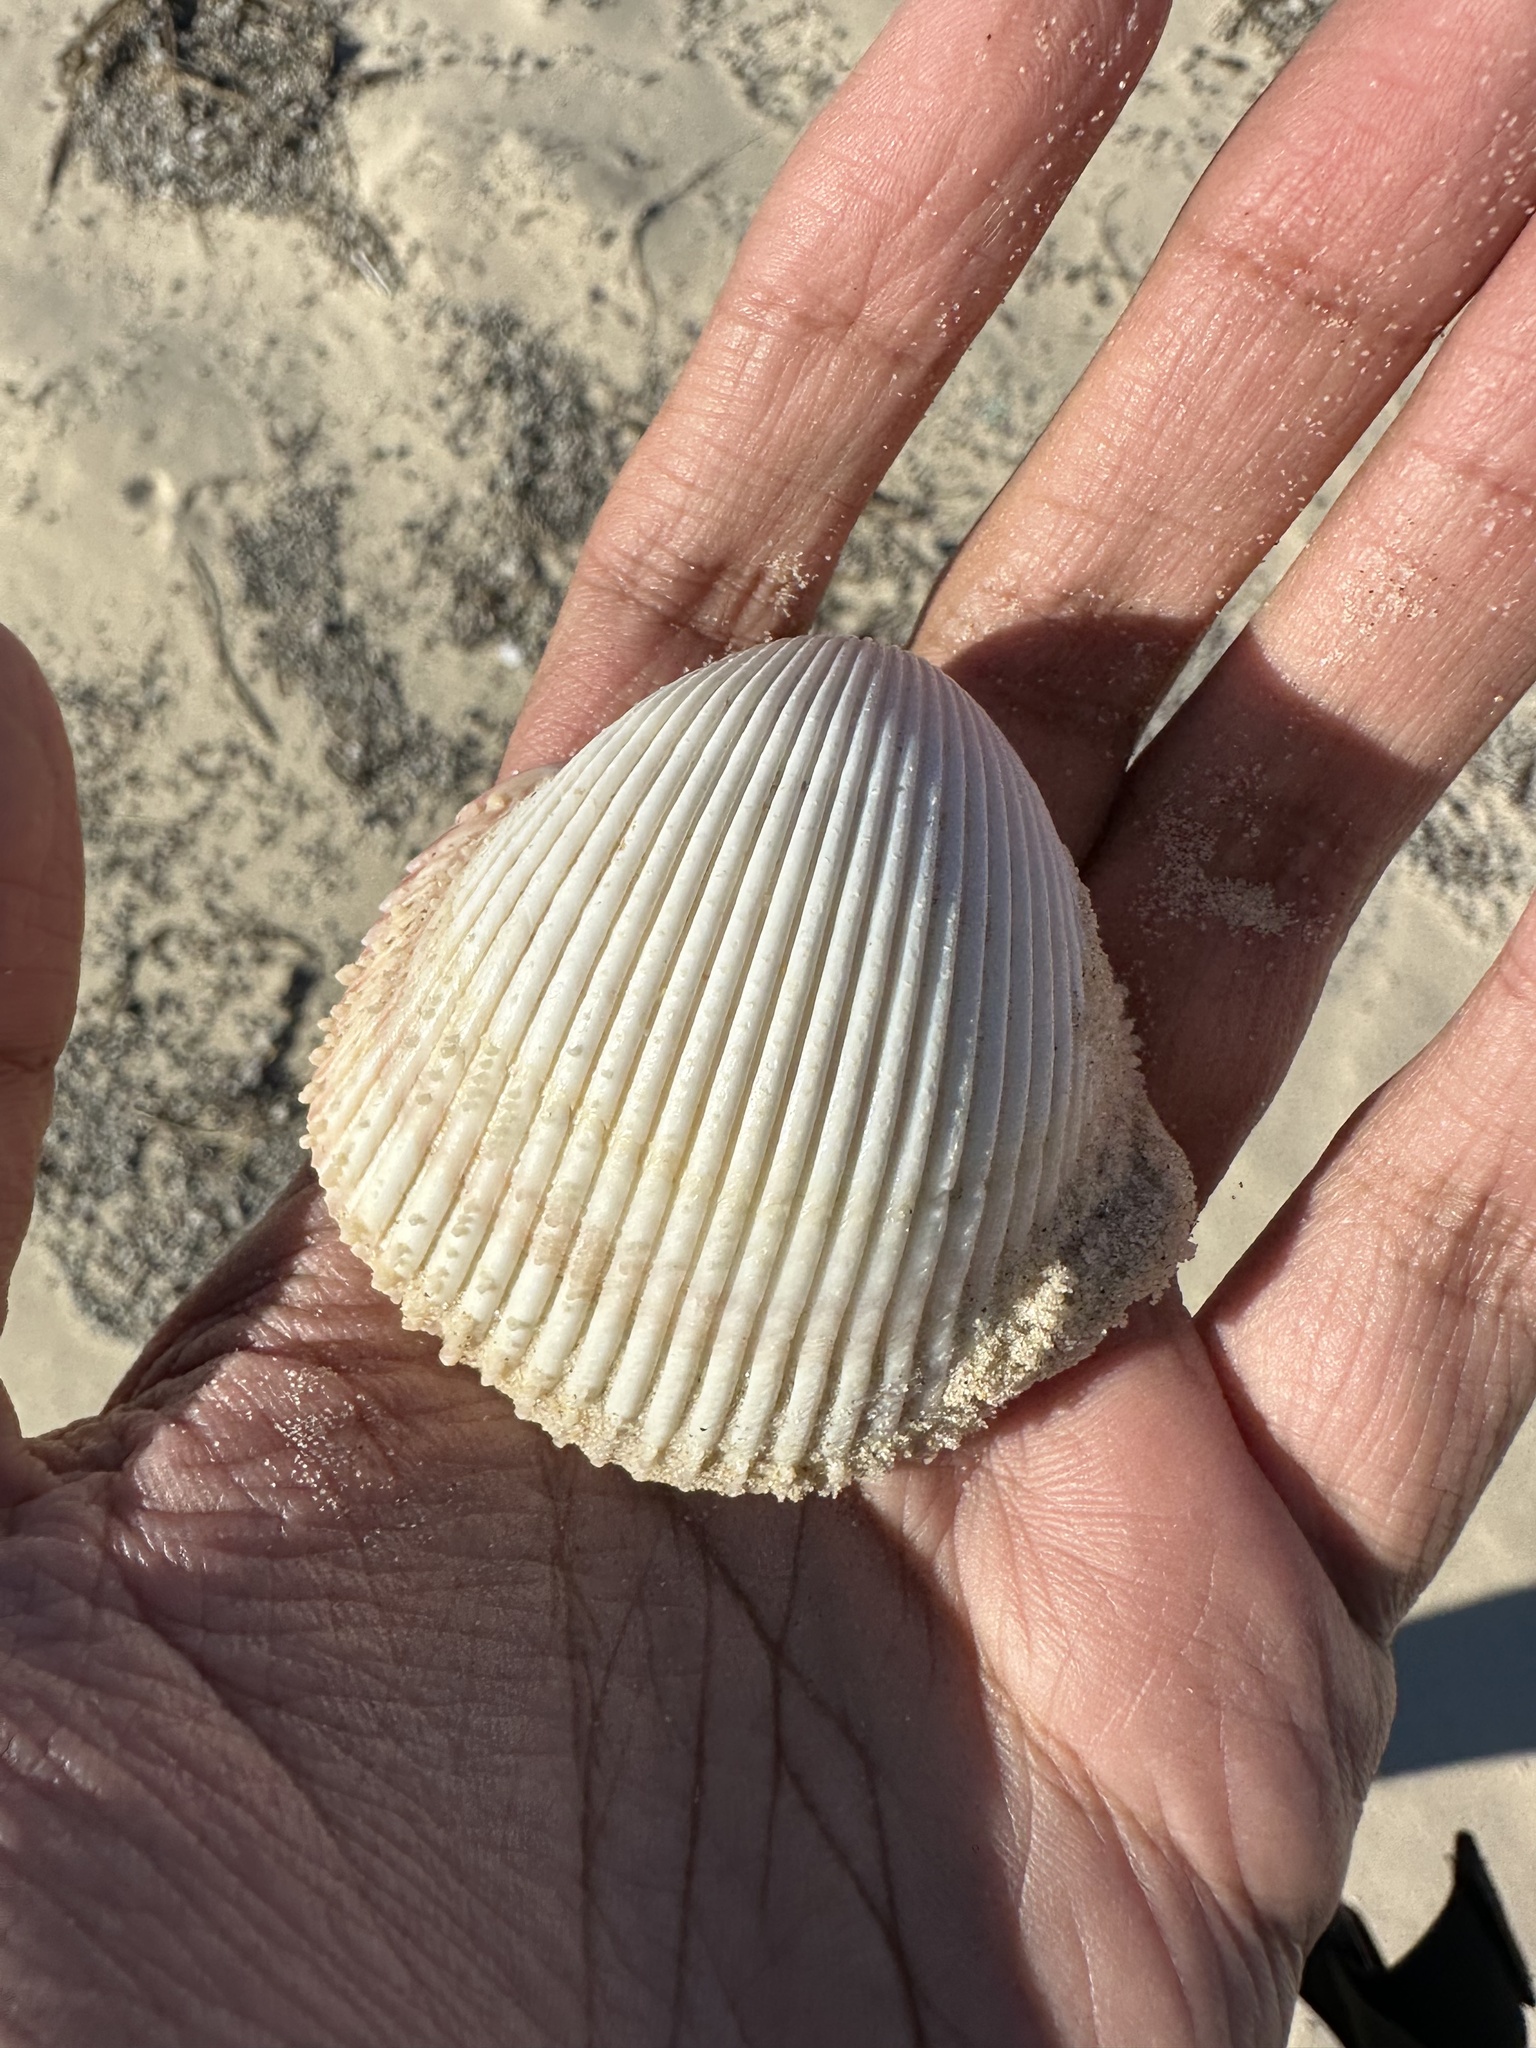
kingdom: Animalia
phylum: Mollusca
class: Bivalvia
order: Cardiida
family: Cardiidae
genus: Vepricardium
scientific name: Vepricardium multispinosum
